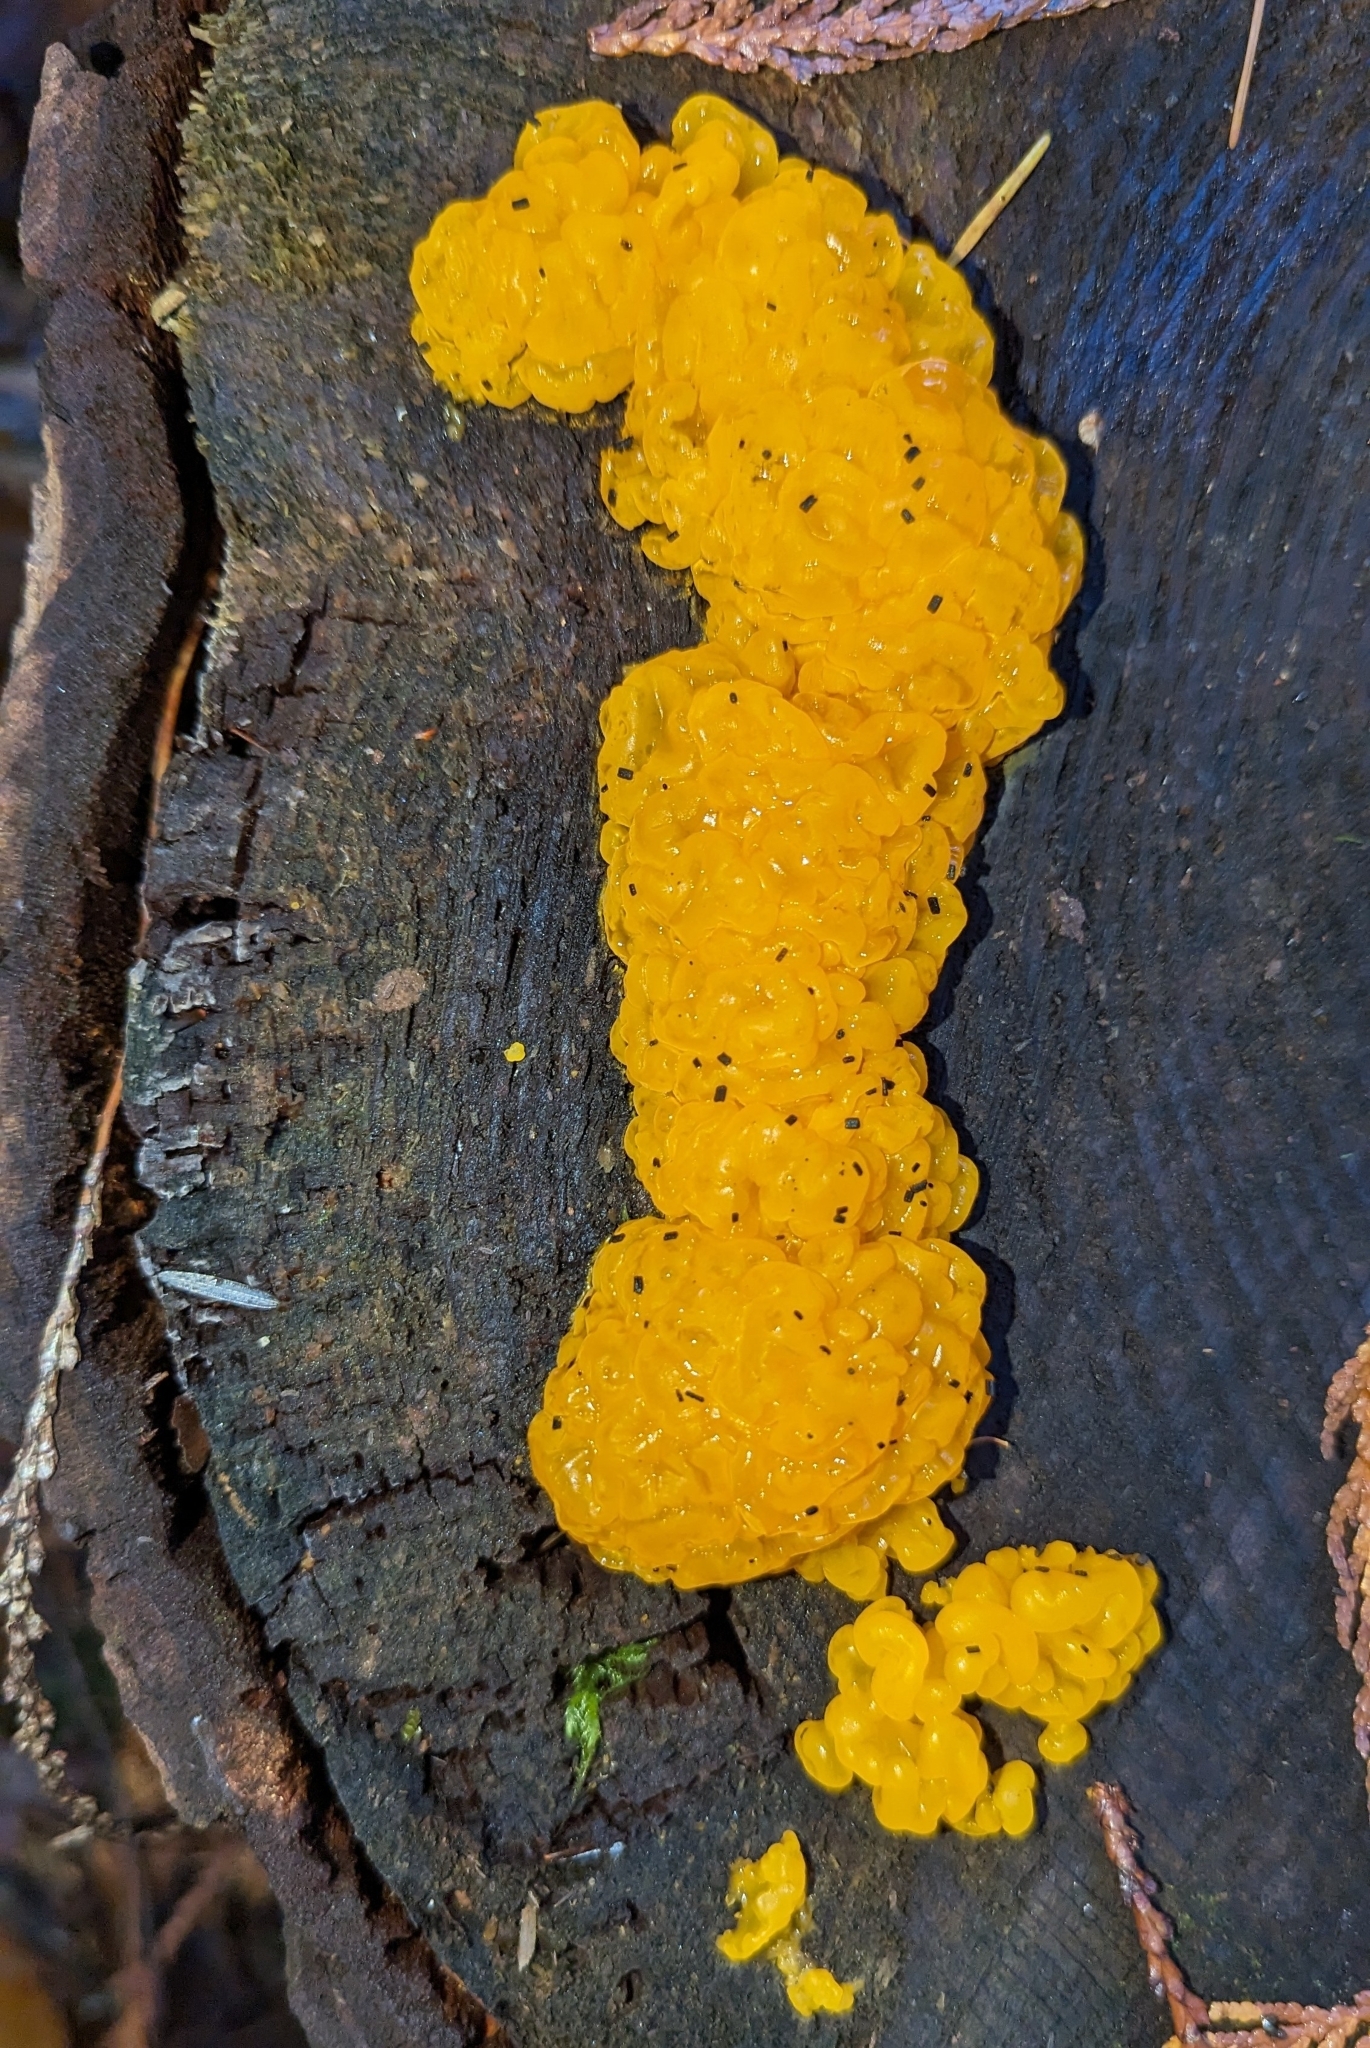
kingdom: Fungi
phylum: Basidiomycota
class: Dacrymycetes
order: Dacrymycetales
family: Dacrymycetaceae
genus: Dacrymyces
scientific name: Dacrymyces chrysospermus
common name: Orange jelly spot
